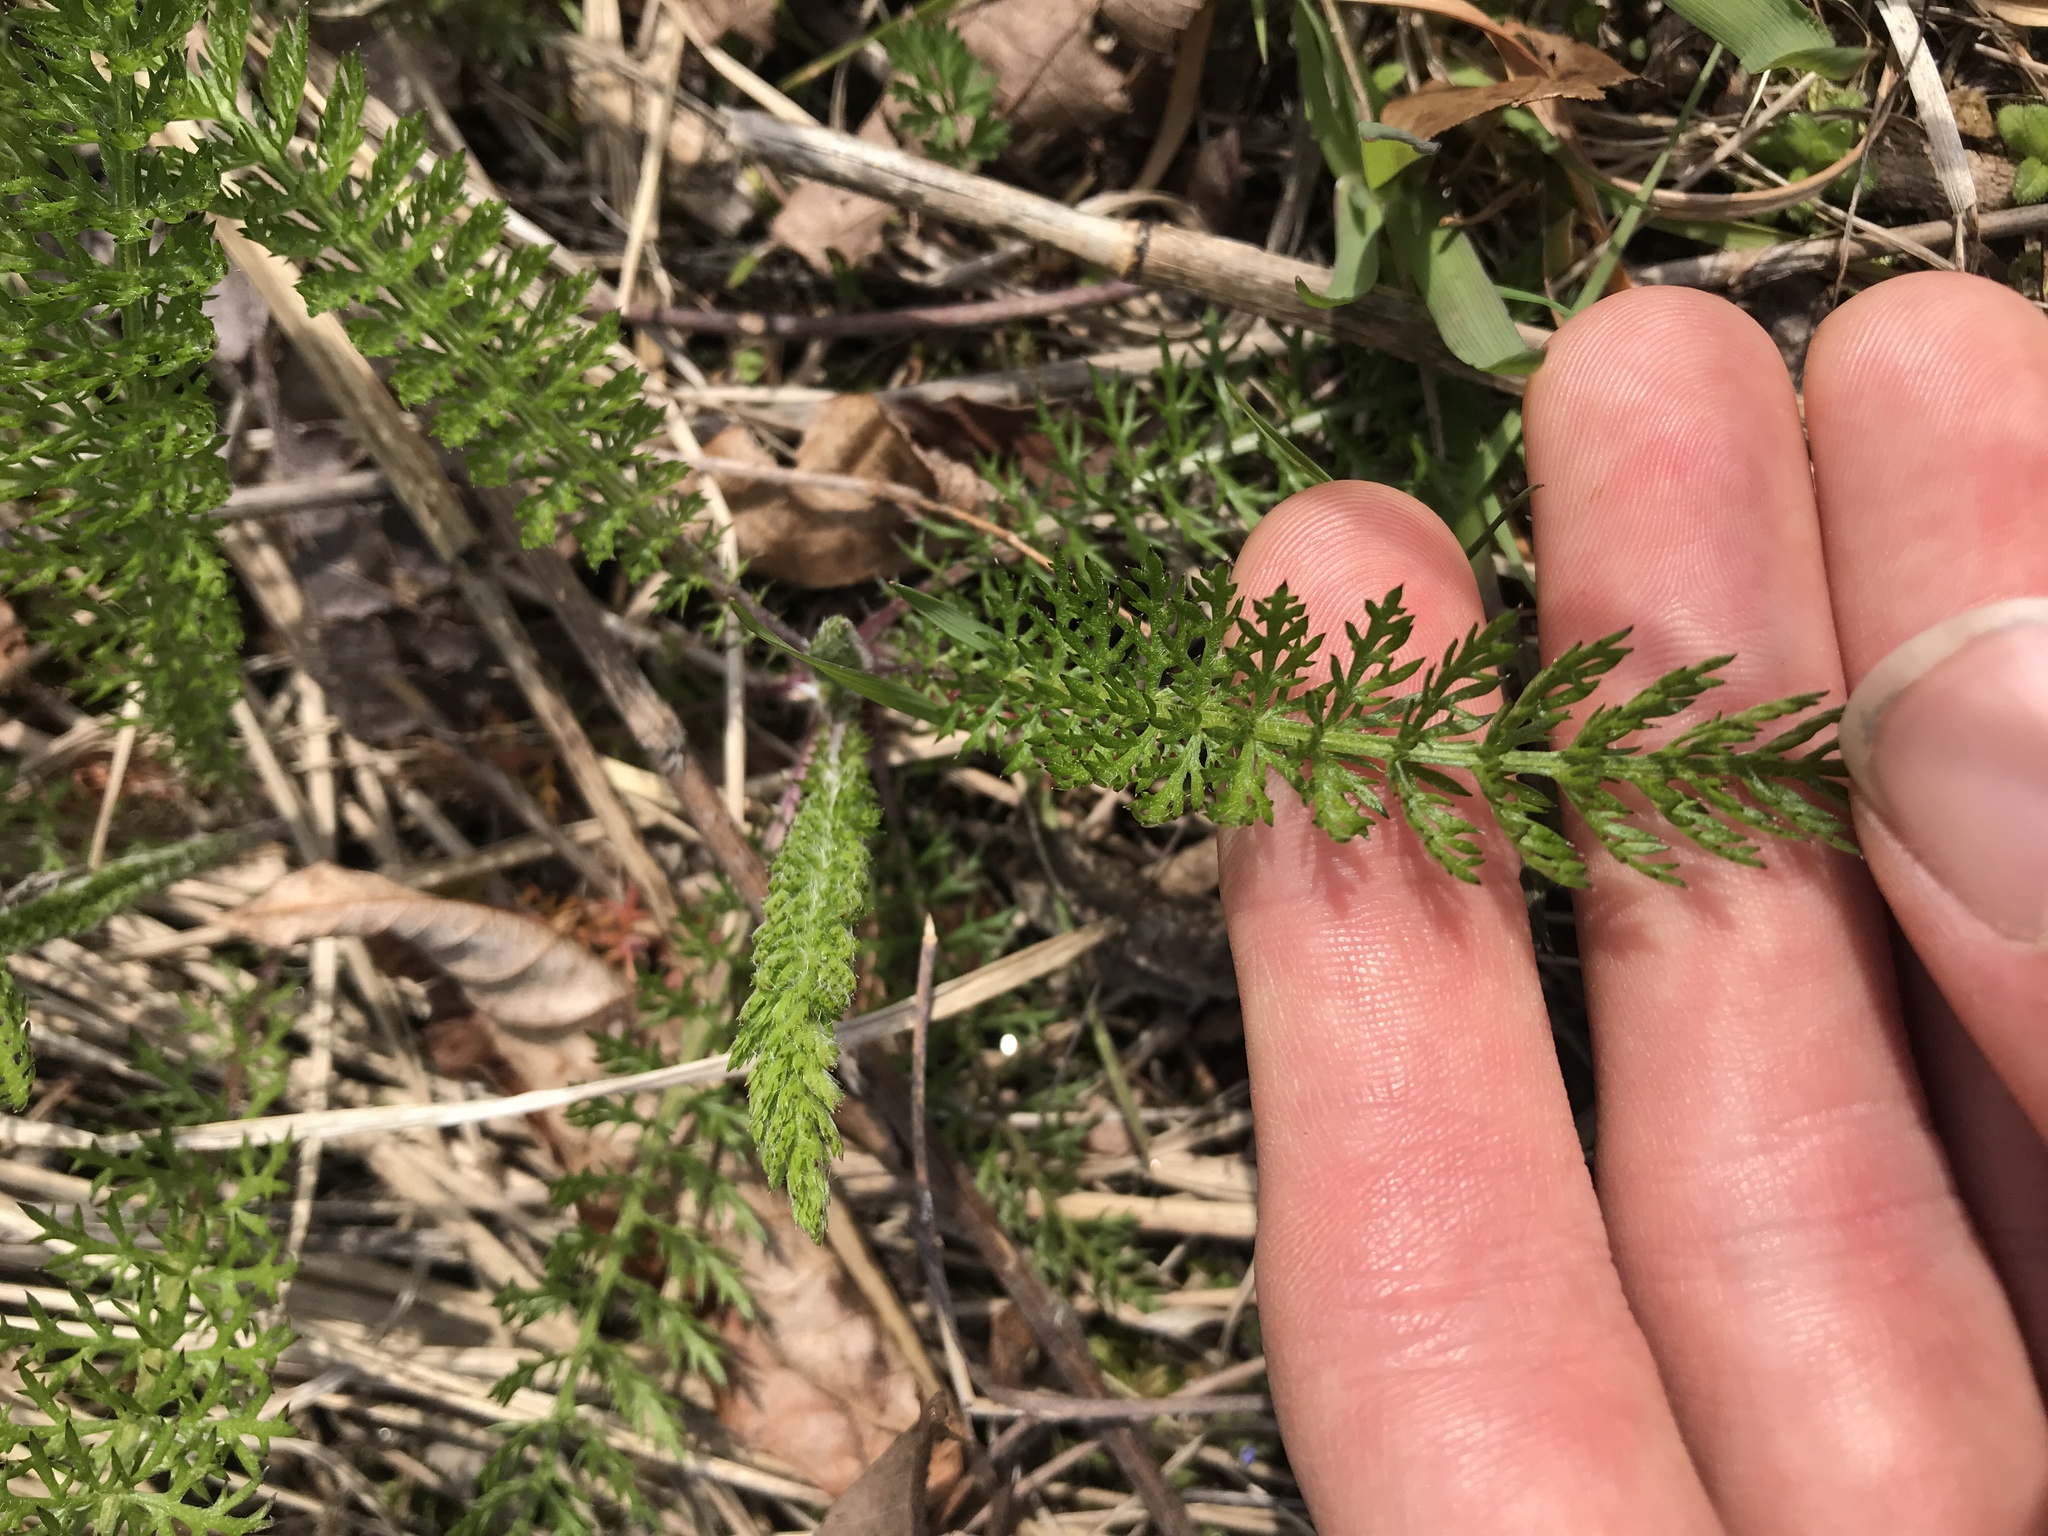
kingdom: Plantae
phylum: Tracheophyta
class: Magnoliopsida
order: Asterales
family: Asteraceae
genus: Achillea
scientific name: Achillea millefolium
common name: Yarrow
